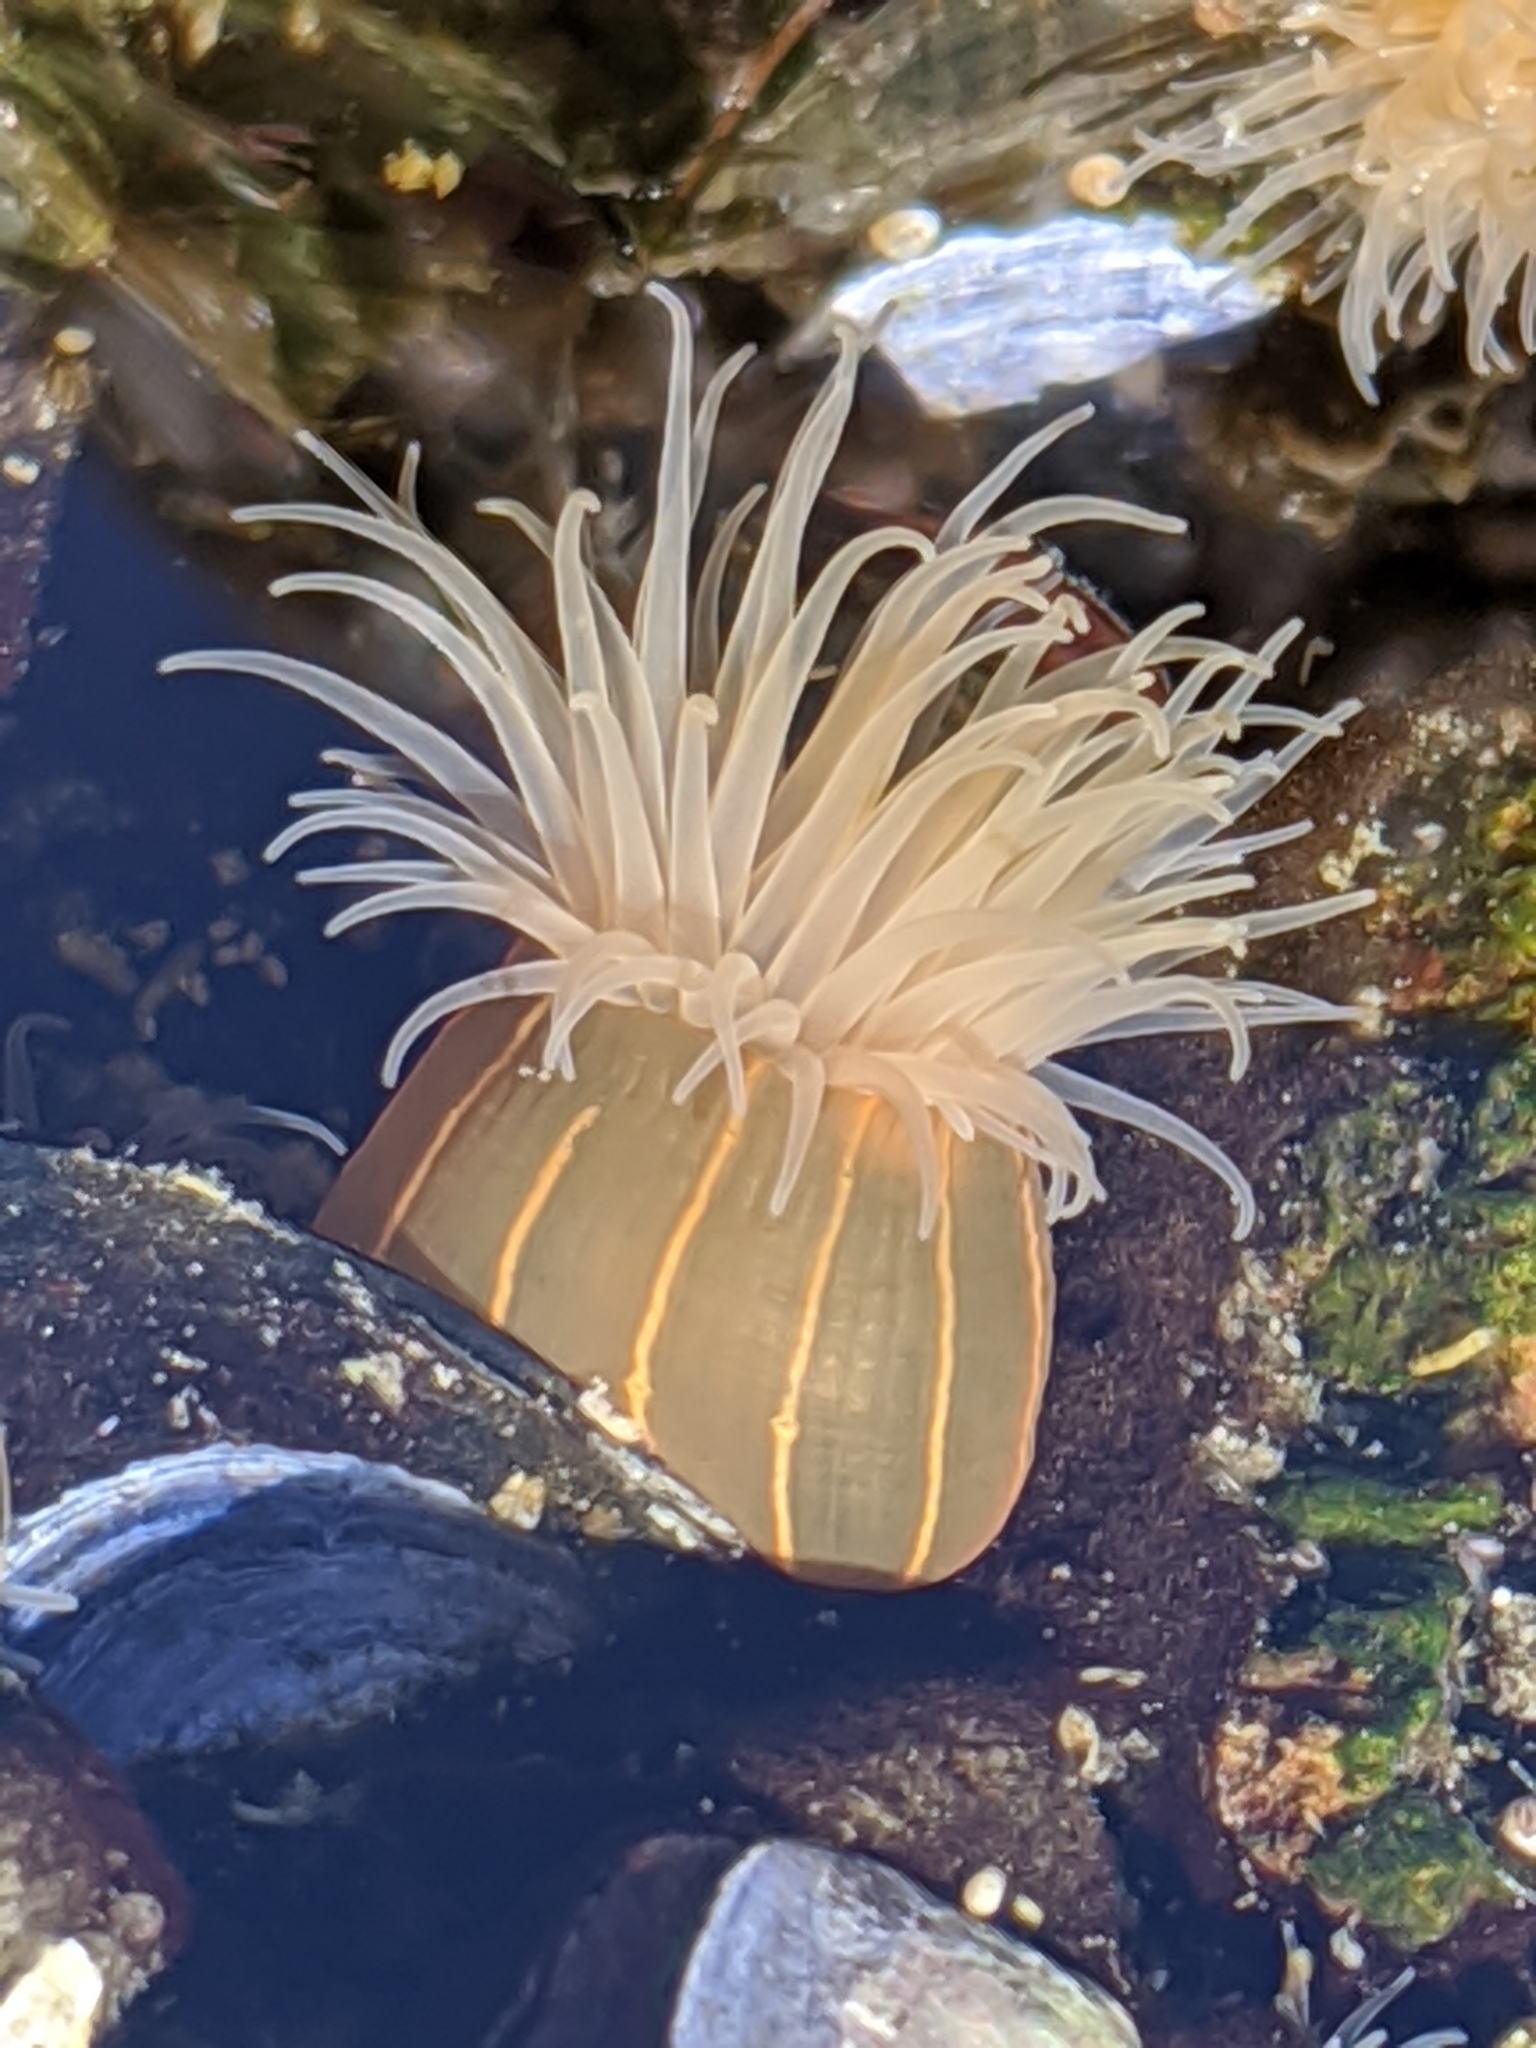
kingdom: Animalia
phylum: Cnidaria
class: Anthozoa
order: Actiniaria
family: Diadumenidae
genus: Diadumene
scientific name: Diadumene lineata
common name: Orange-striped anemone
